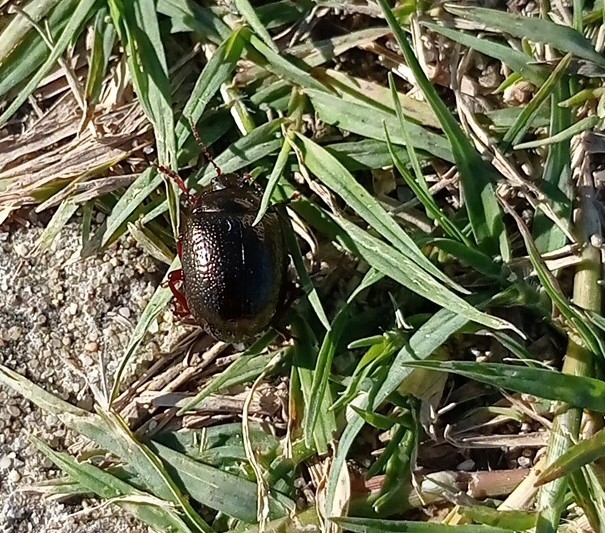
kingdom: Animalia
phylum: Arthropoda
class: Insecta
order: Coleoptera
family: Chrysomelidae
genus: Chrysolina
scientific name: Chrysolina bankii
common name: Leaf beetle
